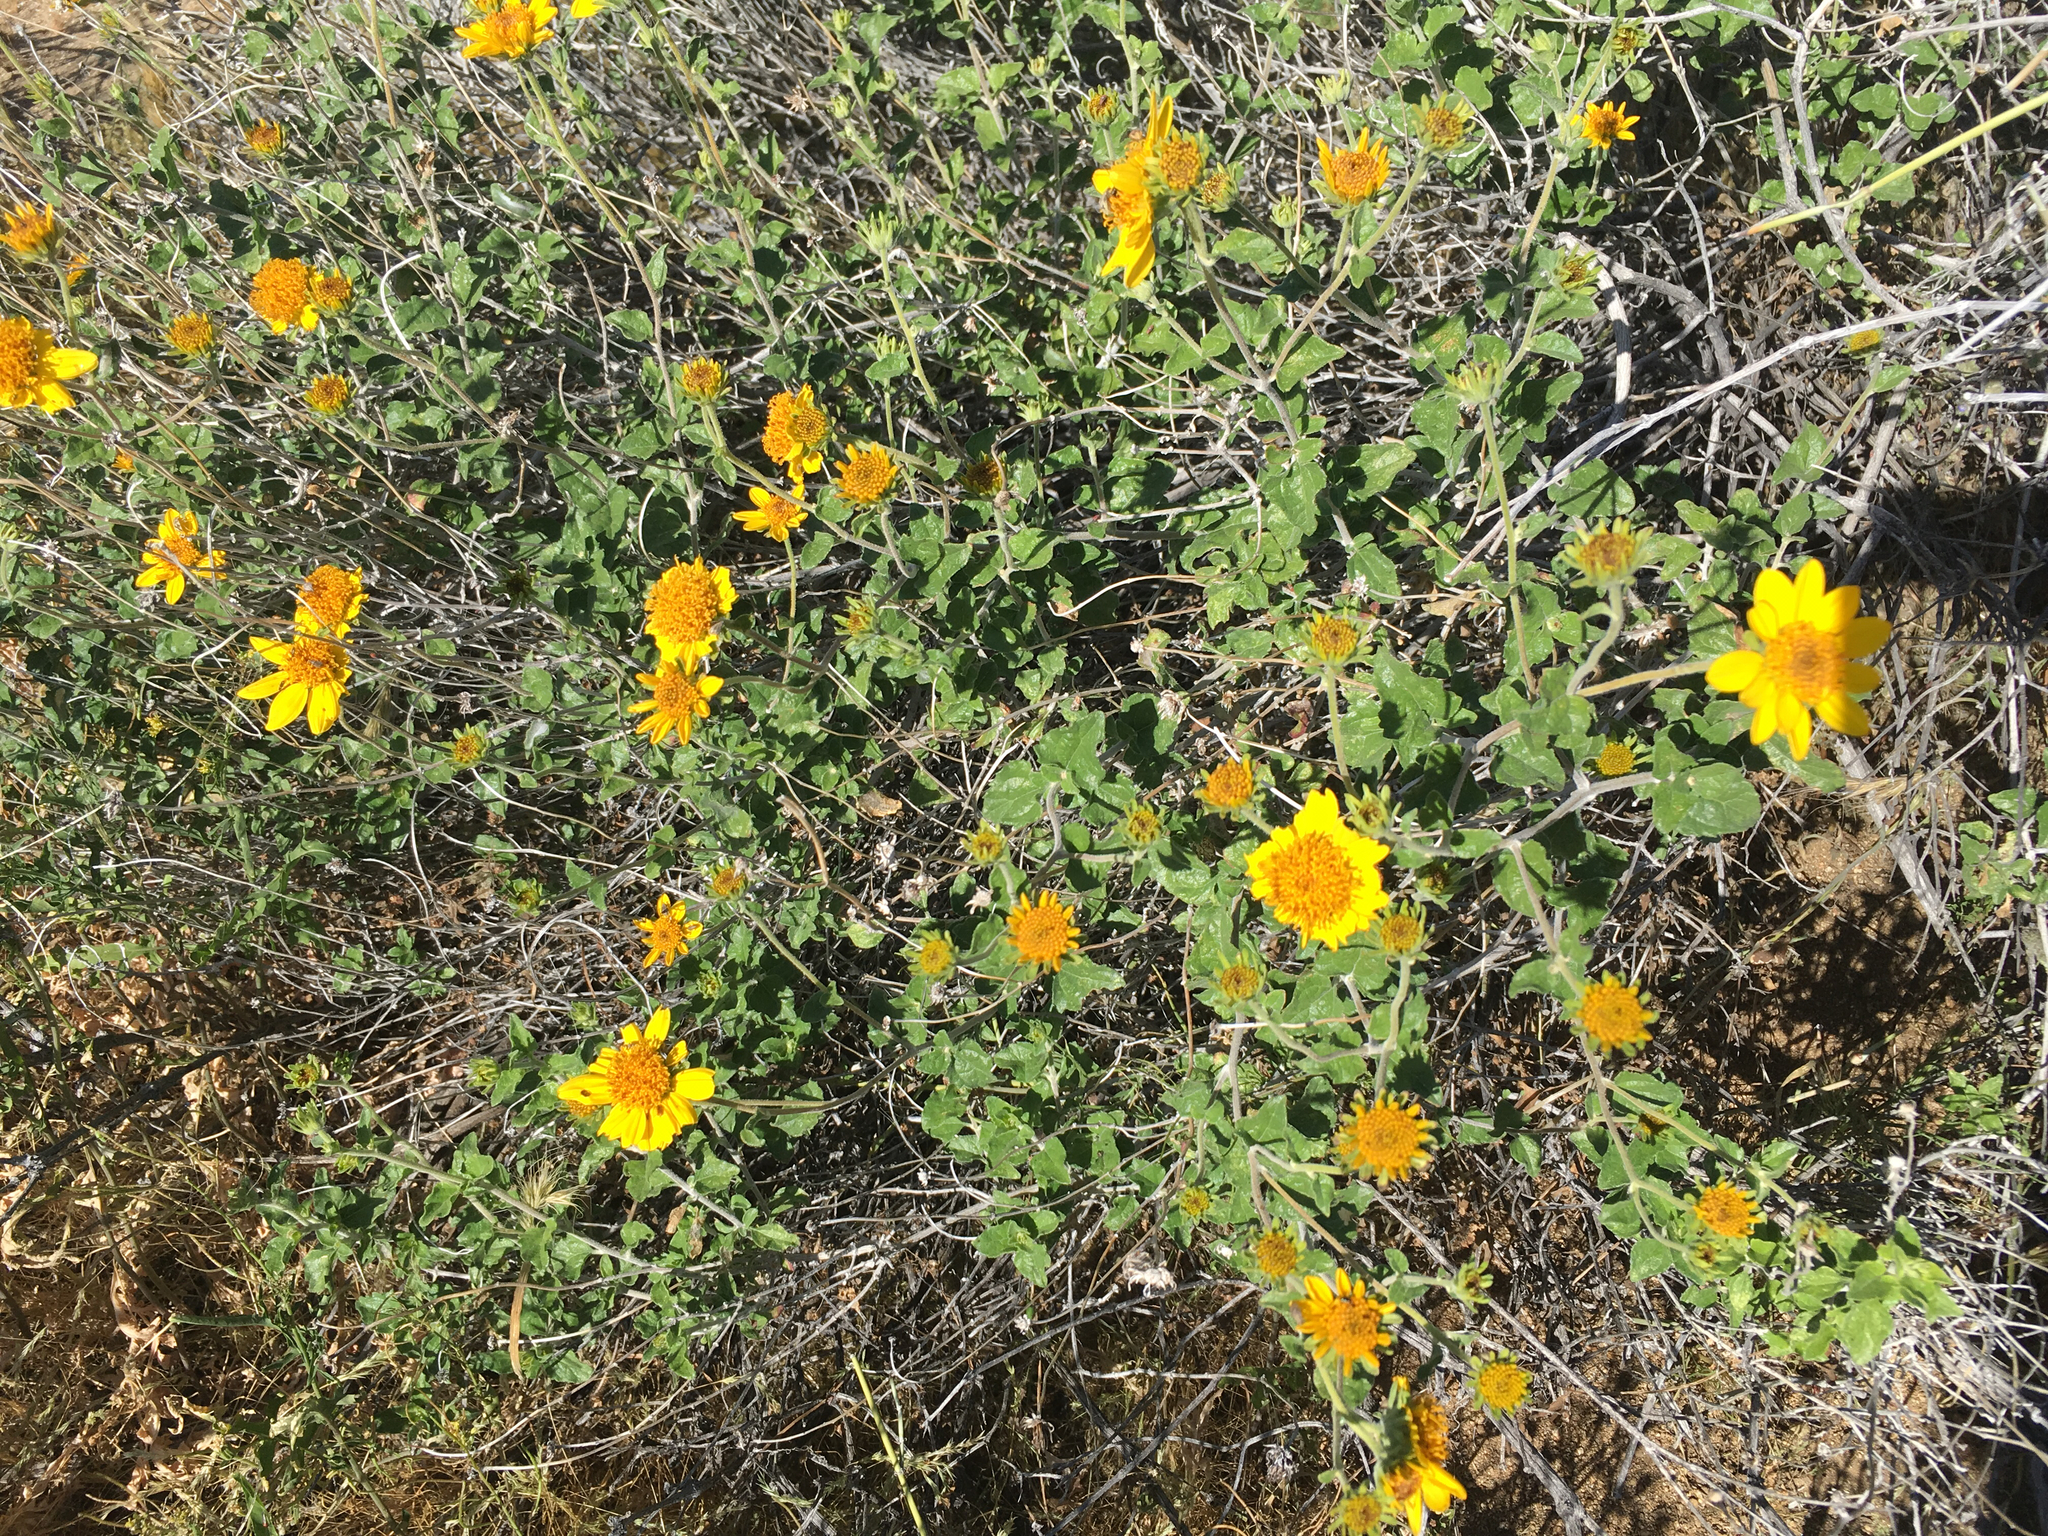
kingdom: Plantae
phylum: Tracheophyta
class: Magnoliopsida
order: Asterales
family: Asteraceae
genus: Bahiopsis
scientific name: Bahiopsis parishii
